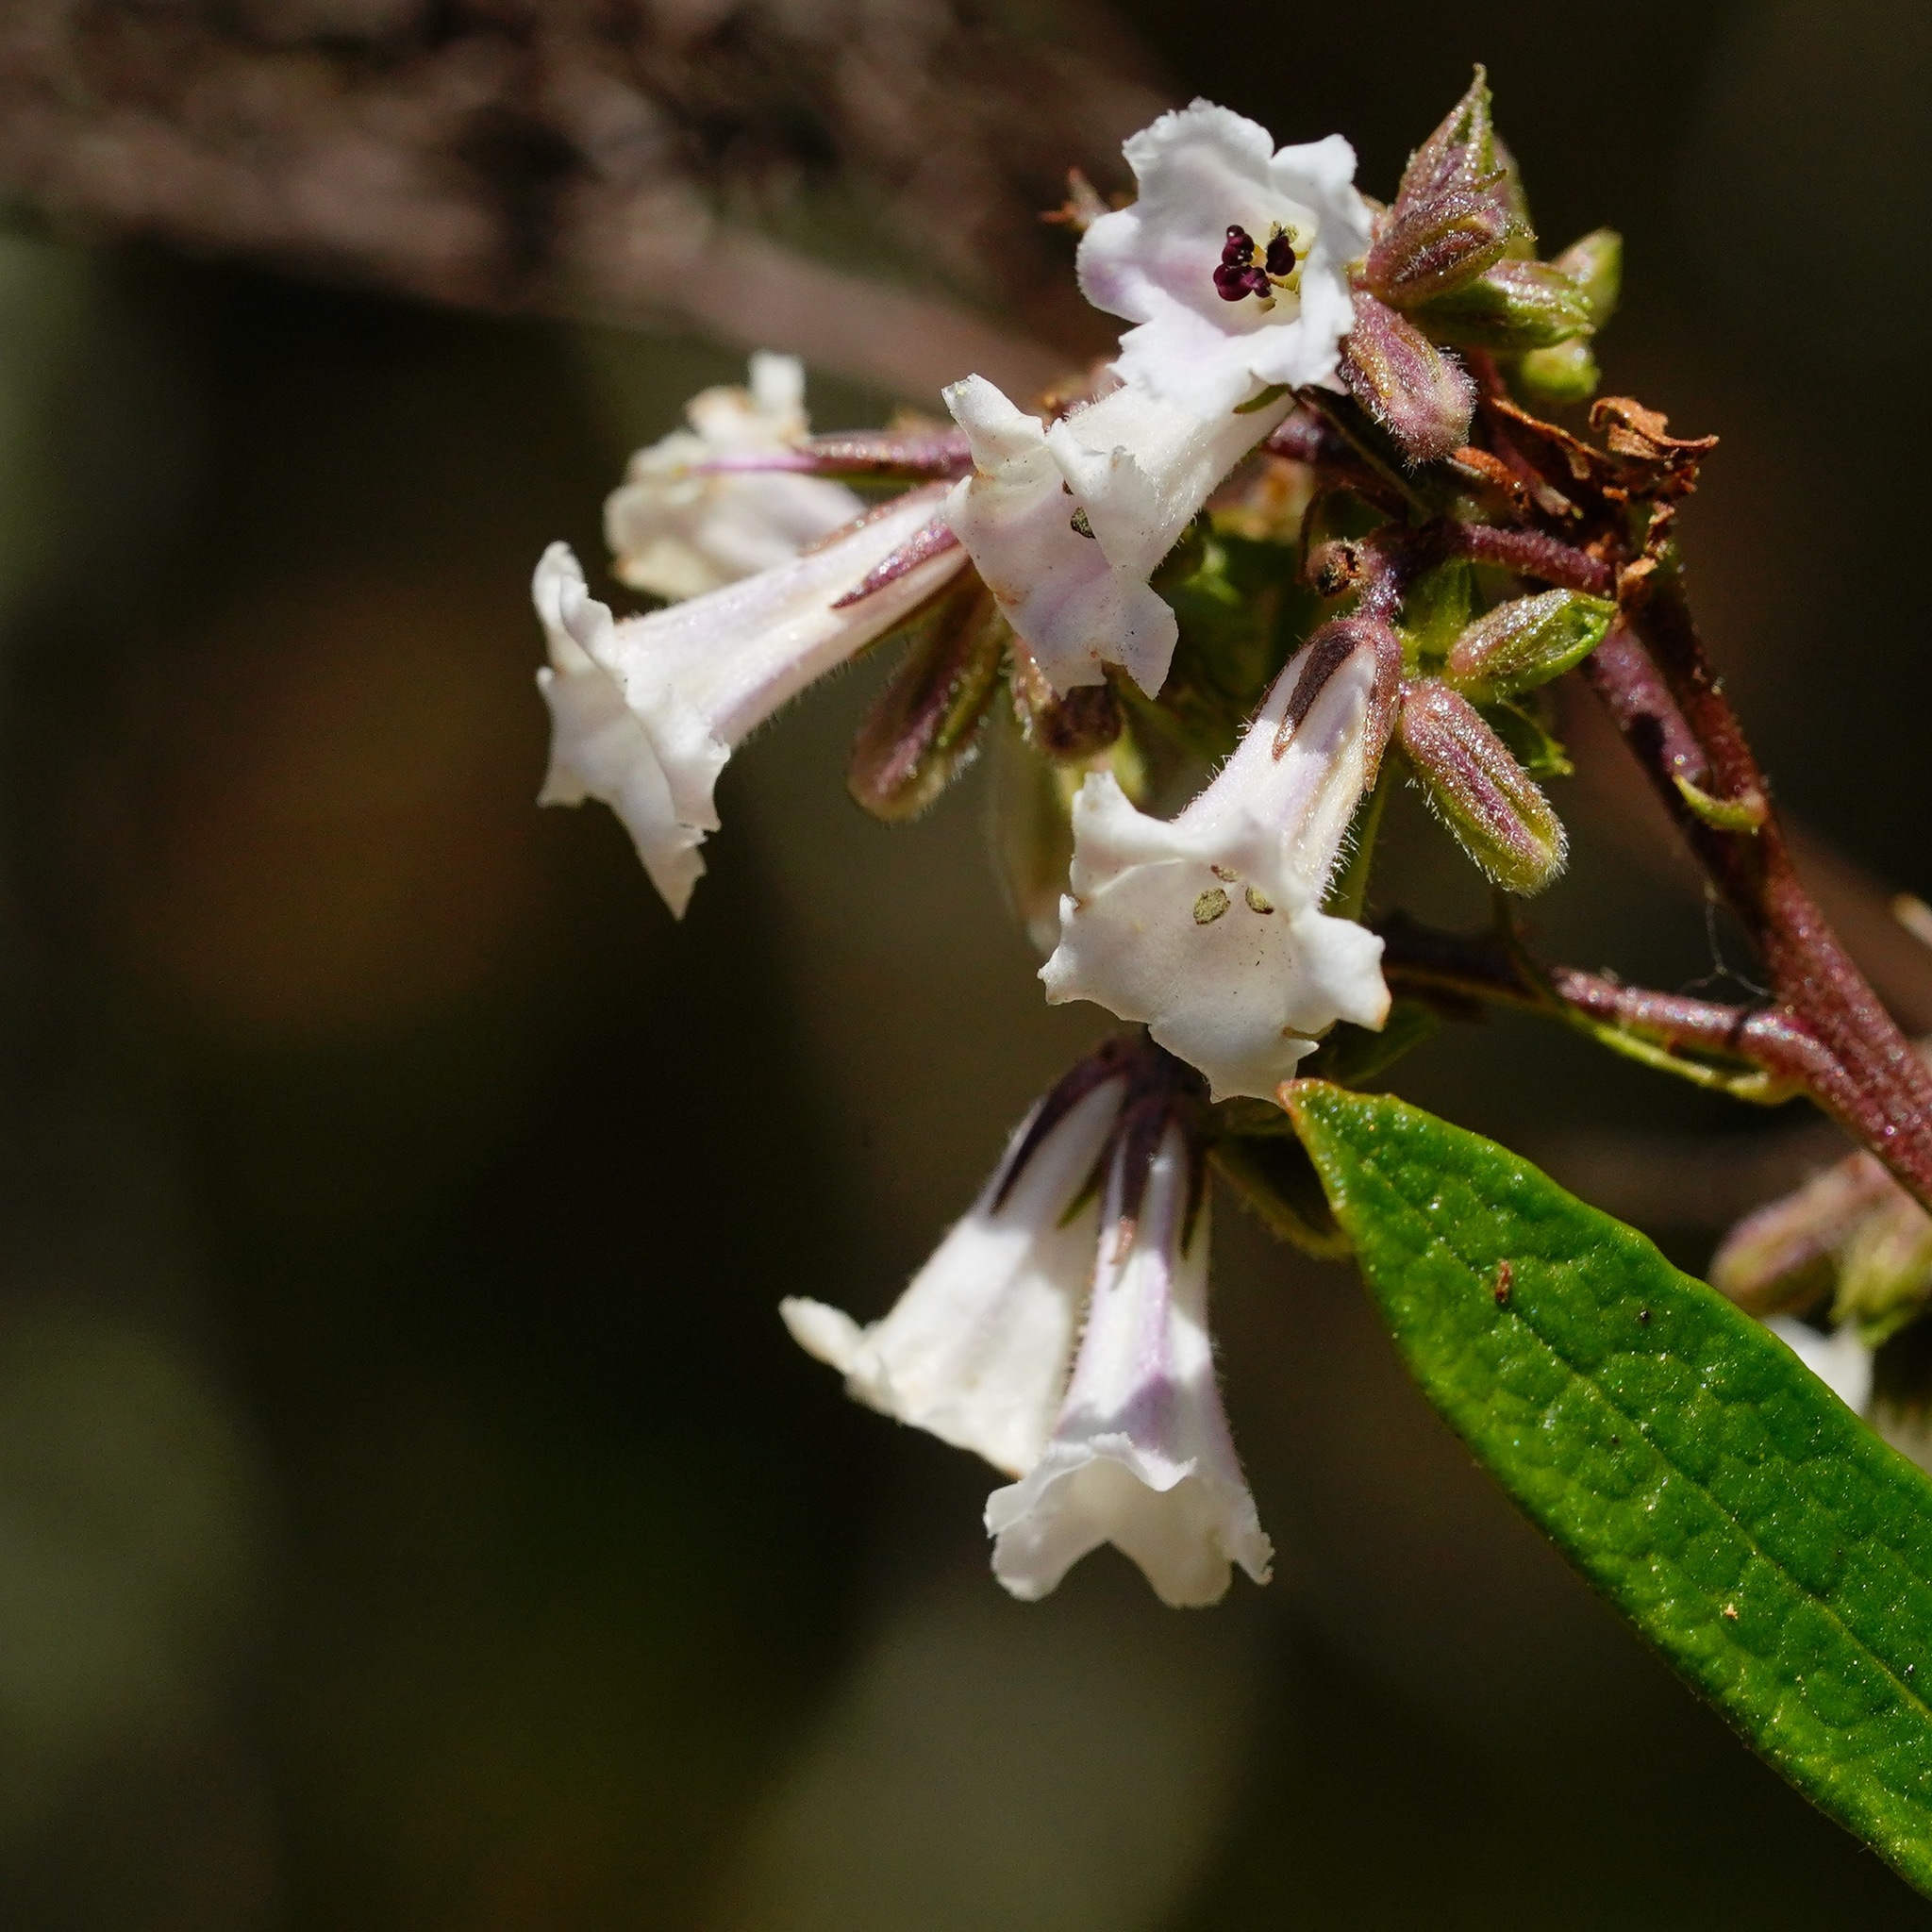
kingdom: Plantae
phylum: Tracheophyta
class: Magnoliopsida
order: Boraginales
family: Namaceae
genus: Eriodictyon
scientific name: Eriodictyon californicum
